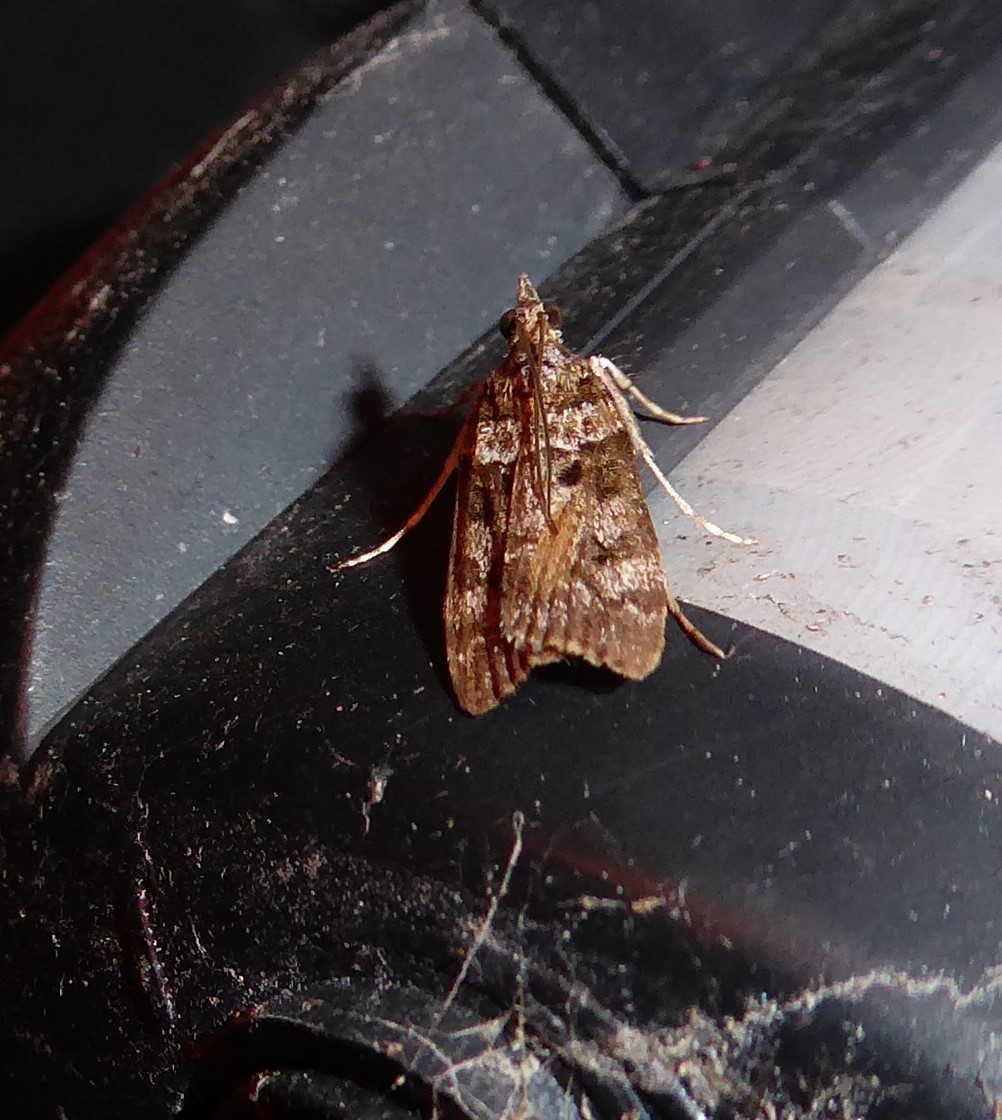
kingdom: Animalia
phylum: Arthropoda
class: Insecta
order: Lepidoptera
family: Crambidae
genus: Eudonia
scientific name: Eudonia submarginalis
